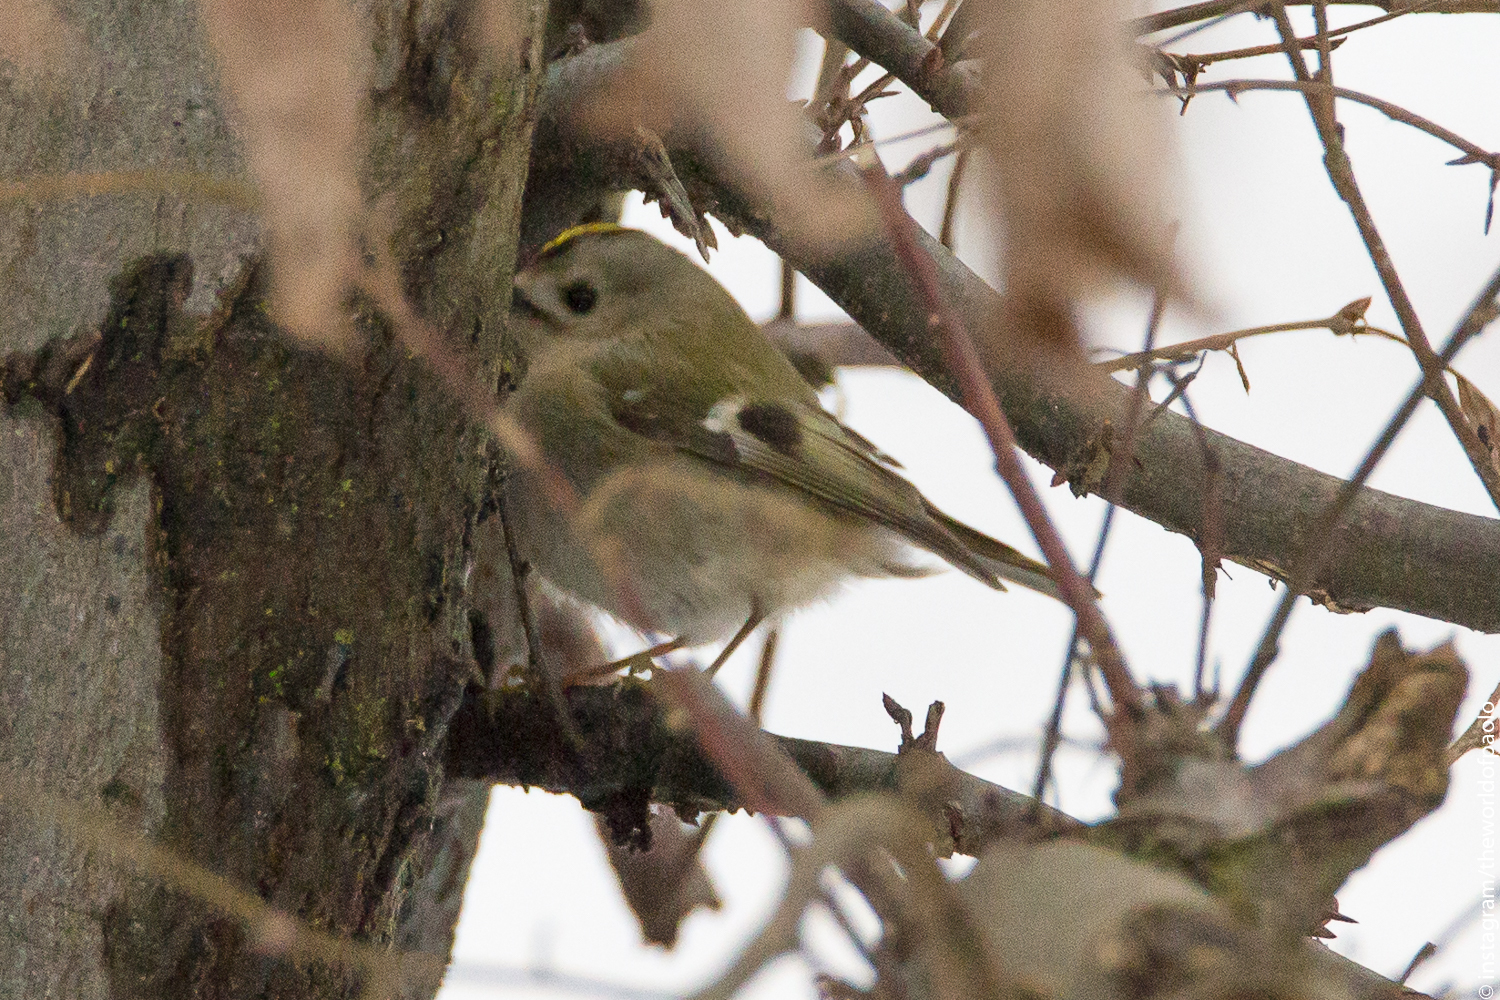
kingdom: Animalia
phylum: Chordata
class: Aves
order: Passeriformes
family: Regulidae
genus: Regulus
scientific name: Regulus regulus
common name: Goldcrest
